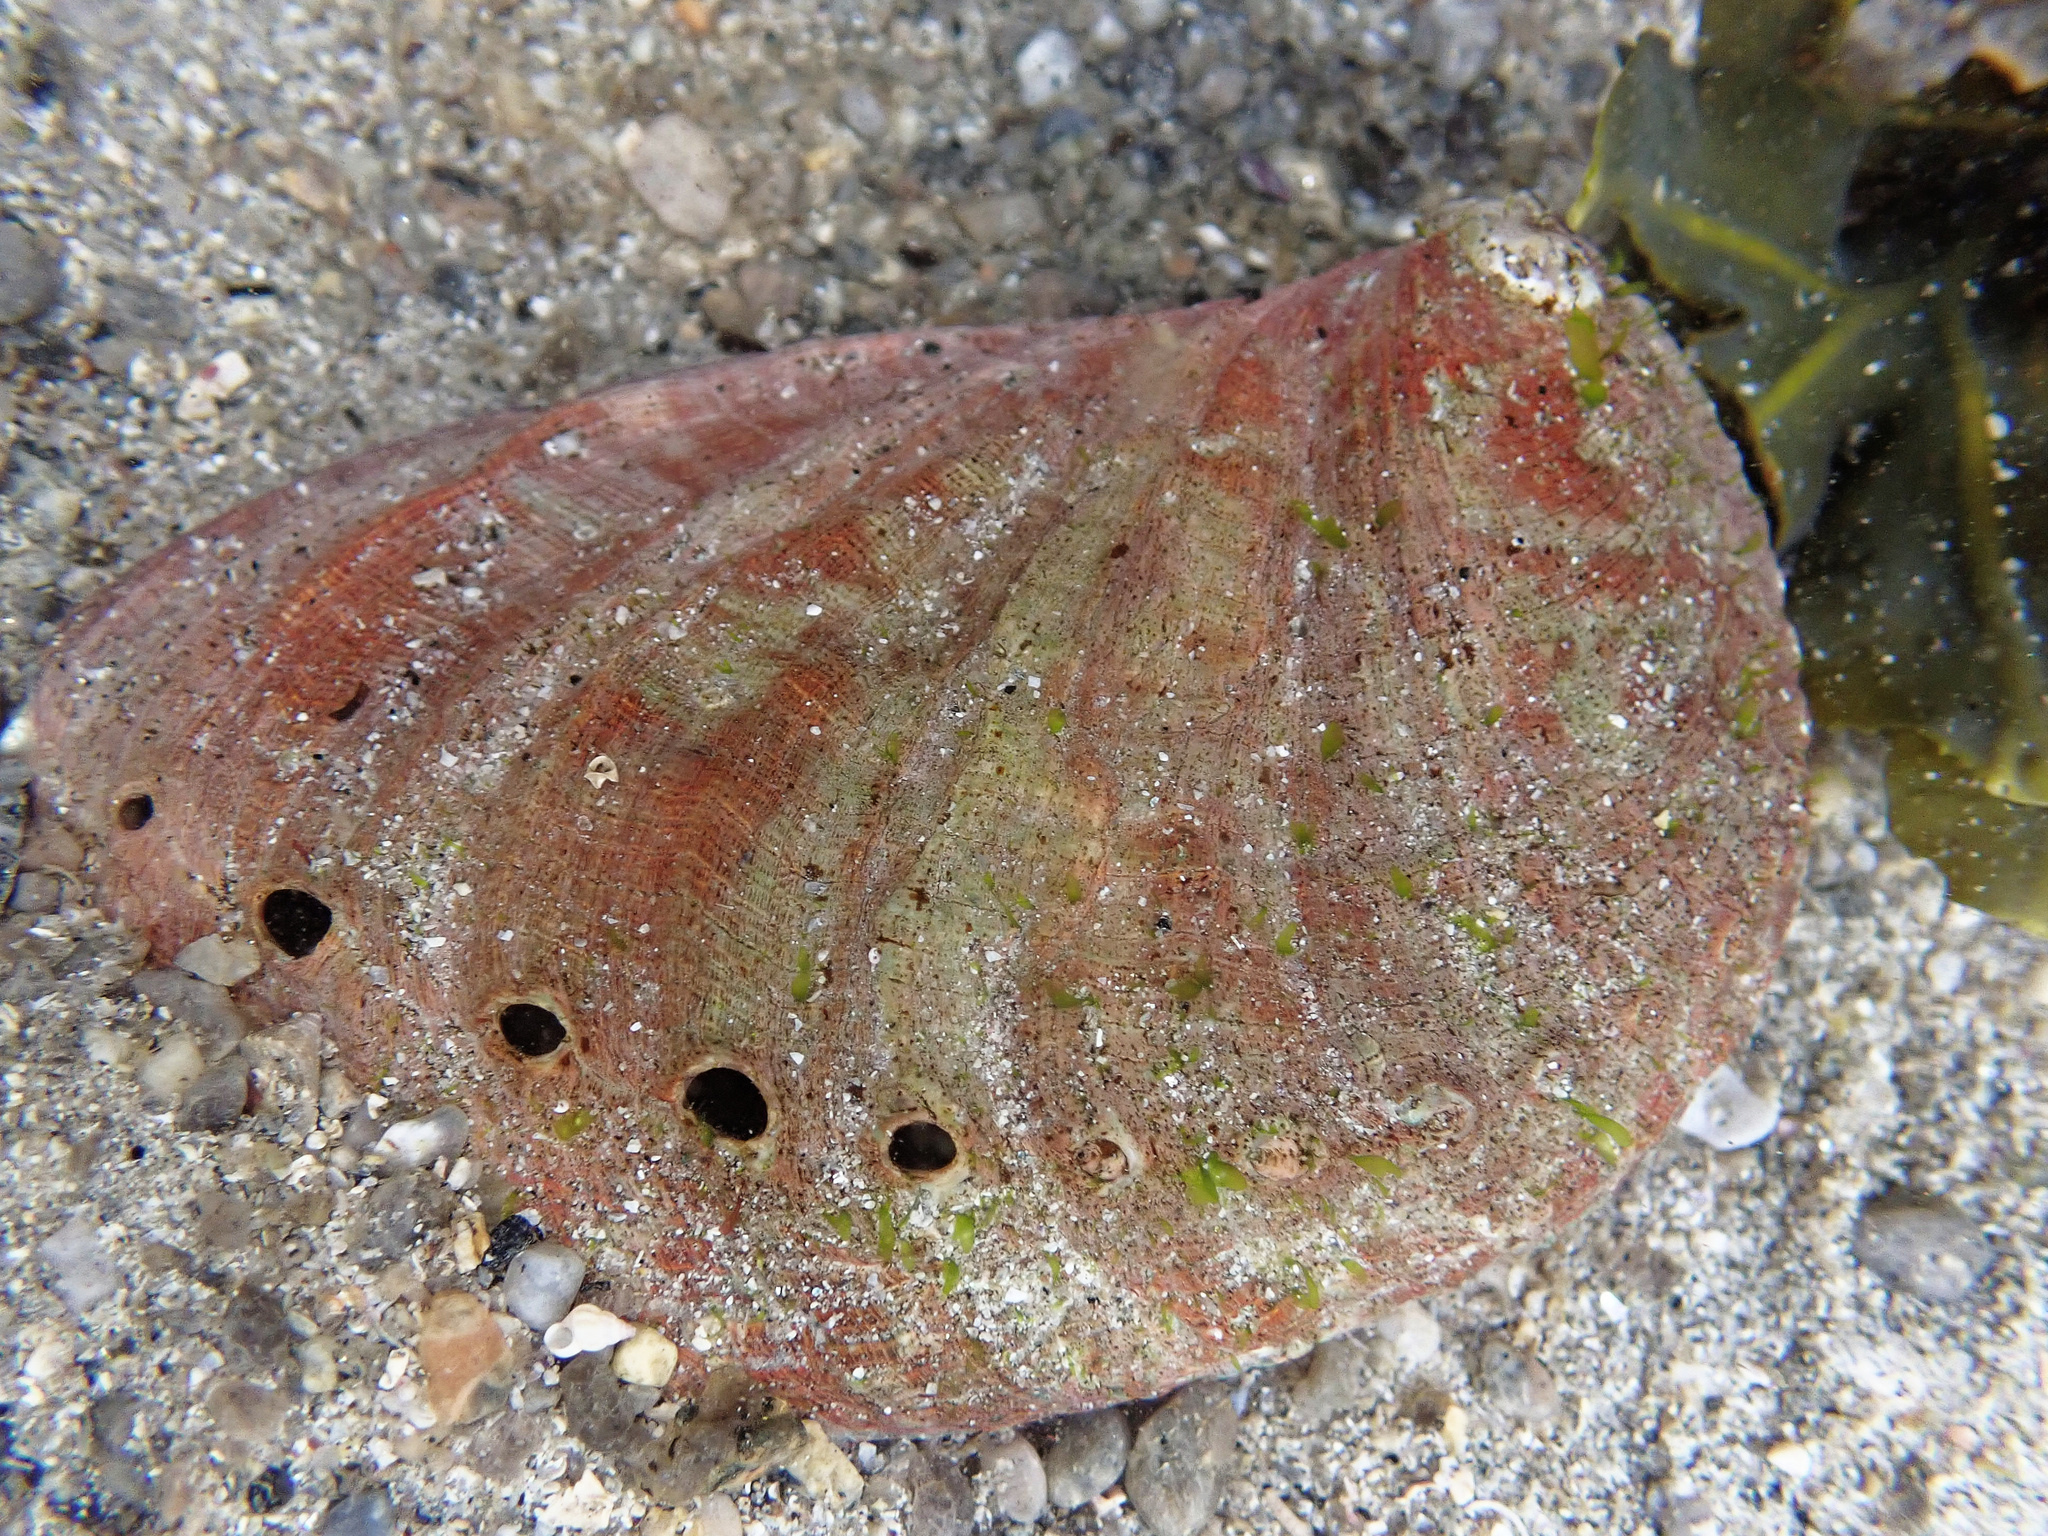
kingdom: Animalia
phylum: Mollusca
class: Gastropoda
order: Lepetellida
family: Haliotidae
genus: Haliotis
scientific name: Haliotis tuberculata
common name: Green ormer
